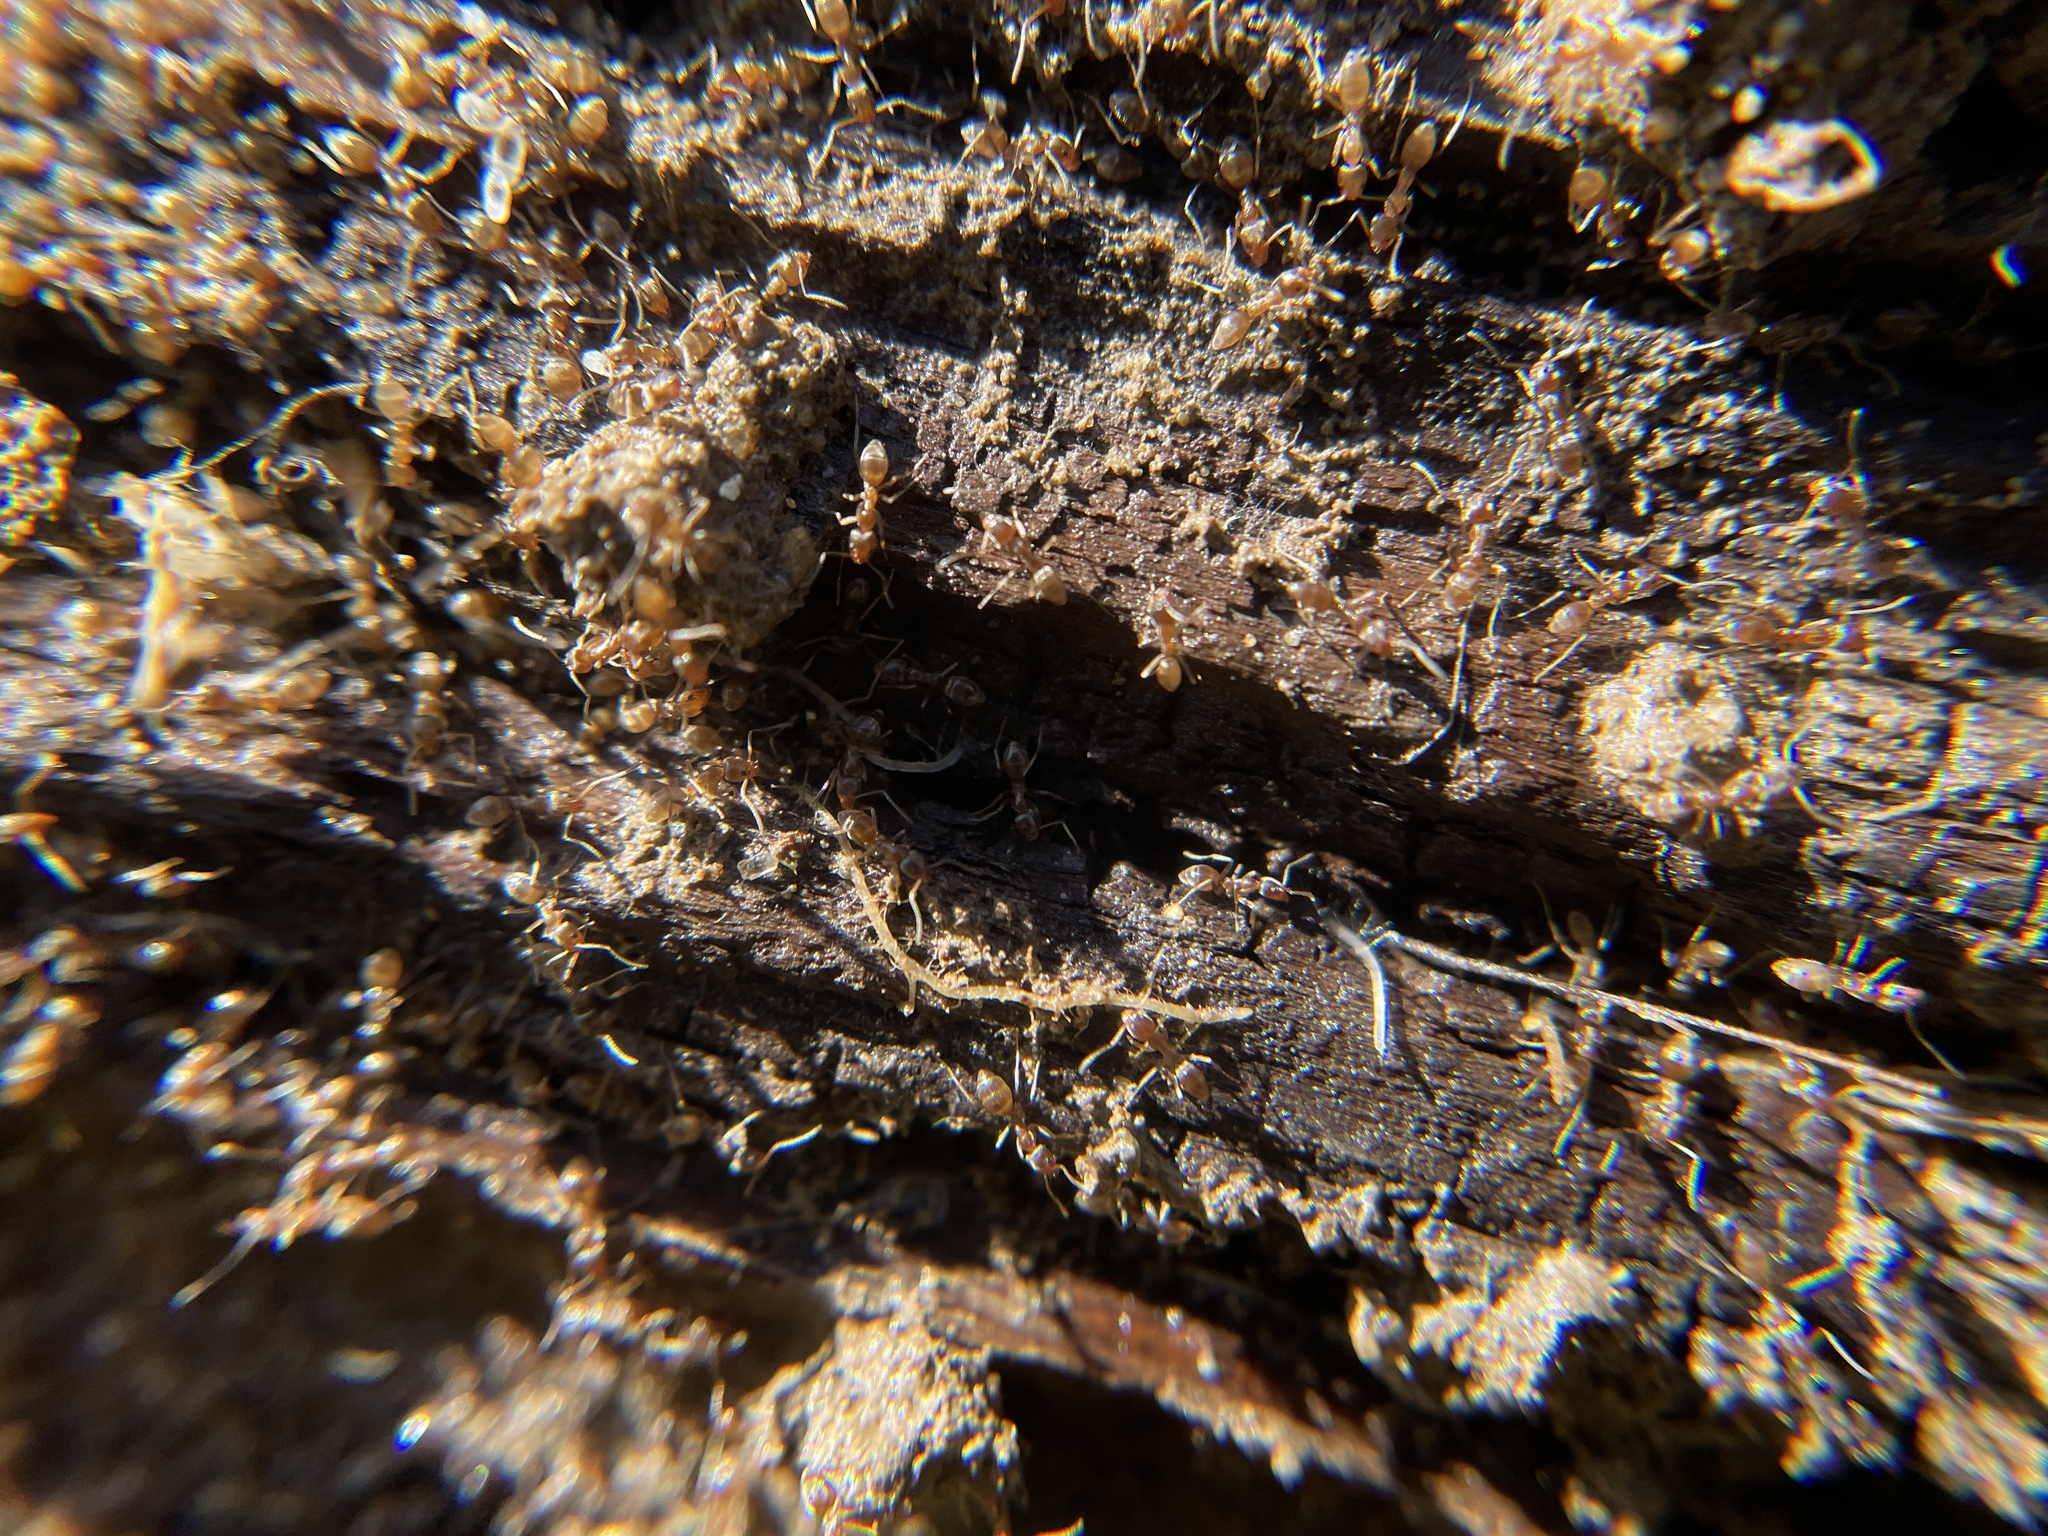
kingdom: Animalia
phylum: Arthropoda
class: Insecta
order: Hymenoptera
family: Formicidae
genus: Linepithema
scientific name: Linepithema humile
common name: Argentine ant
